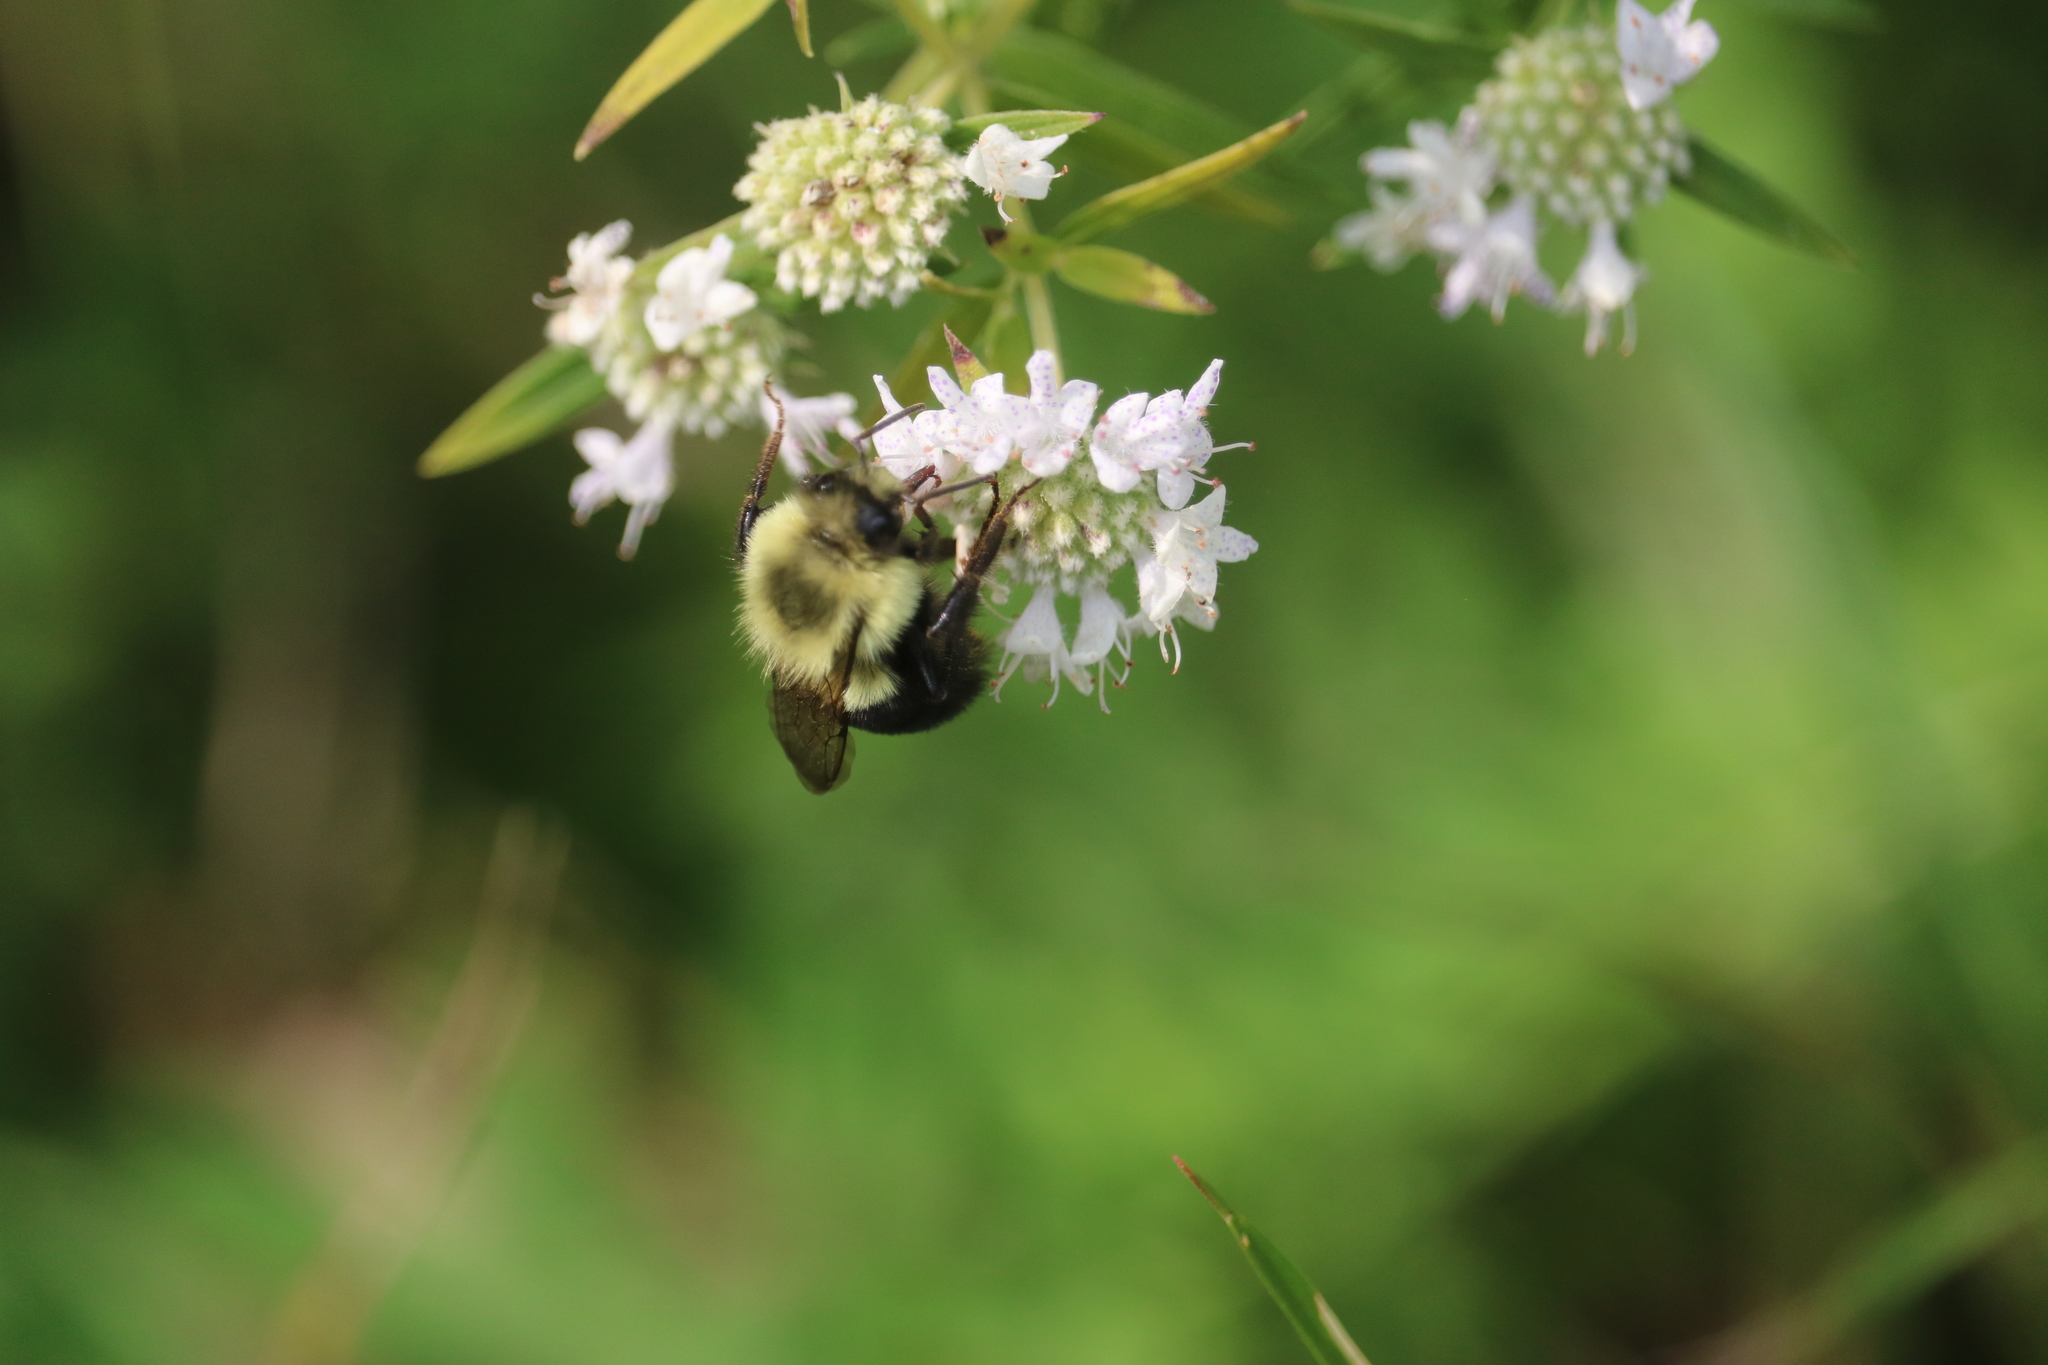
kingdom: Animalia
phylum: Arthropoda
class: Insecta
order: Hymenoptera
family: Apidae
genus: Bombus
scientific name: Bombus impatiens
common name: Common eastern bumble bee
